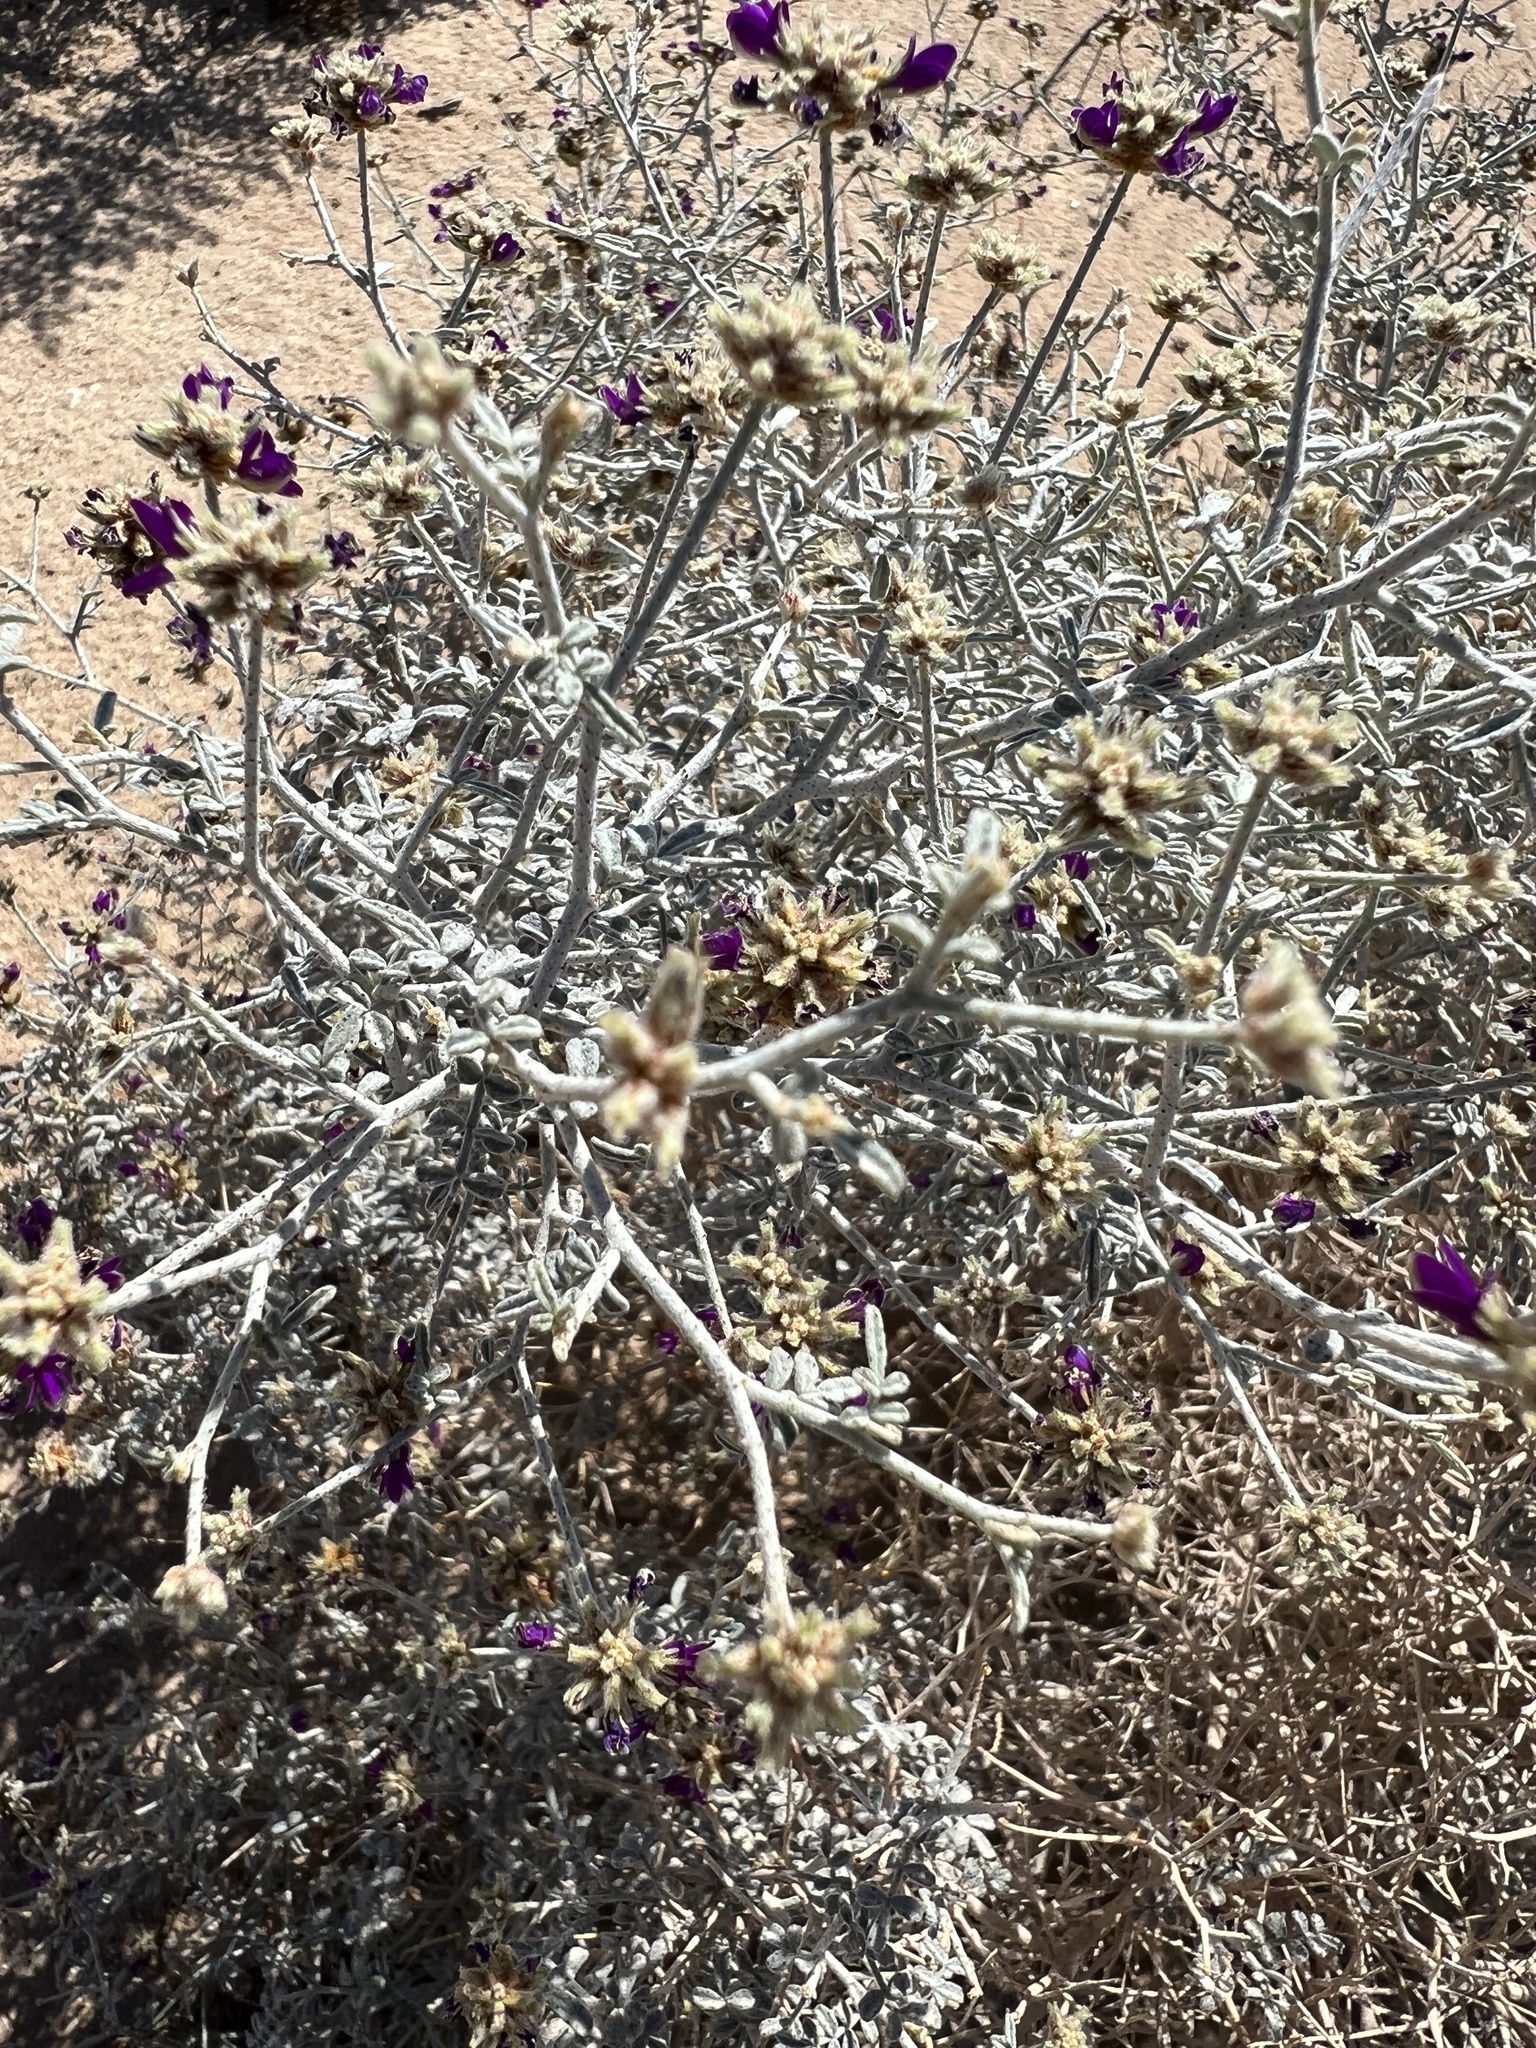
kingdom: Plantae
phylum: Tracheophyta
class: Magnoliopsida
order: Fabales
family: Fabaceae
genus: Psorothamnus
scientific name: Psorothamnus emoryi
